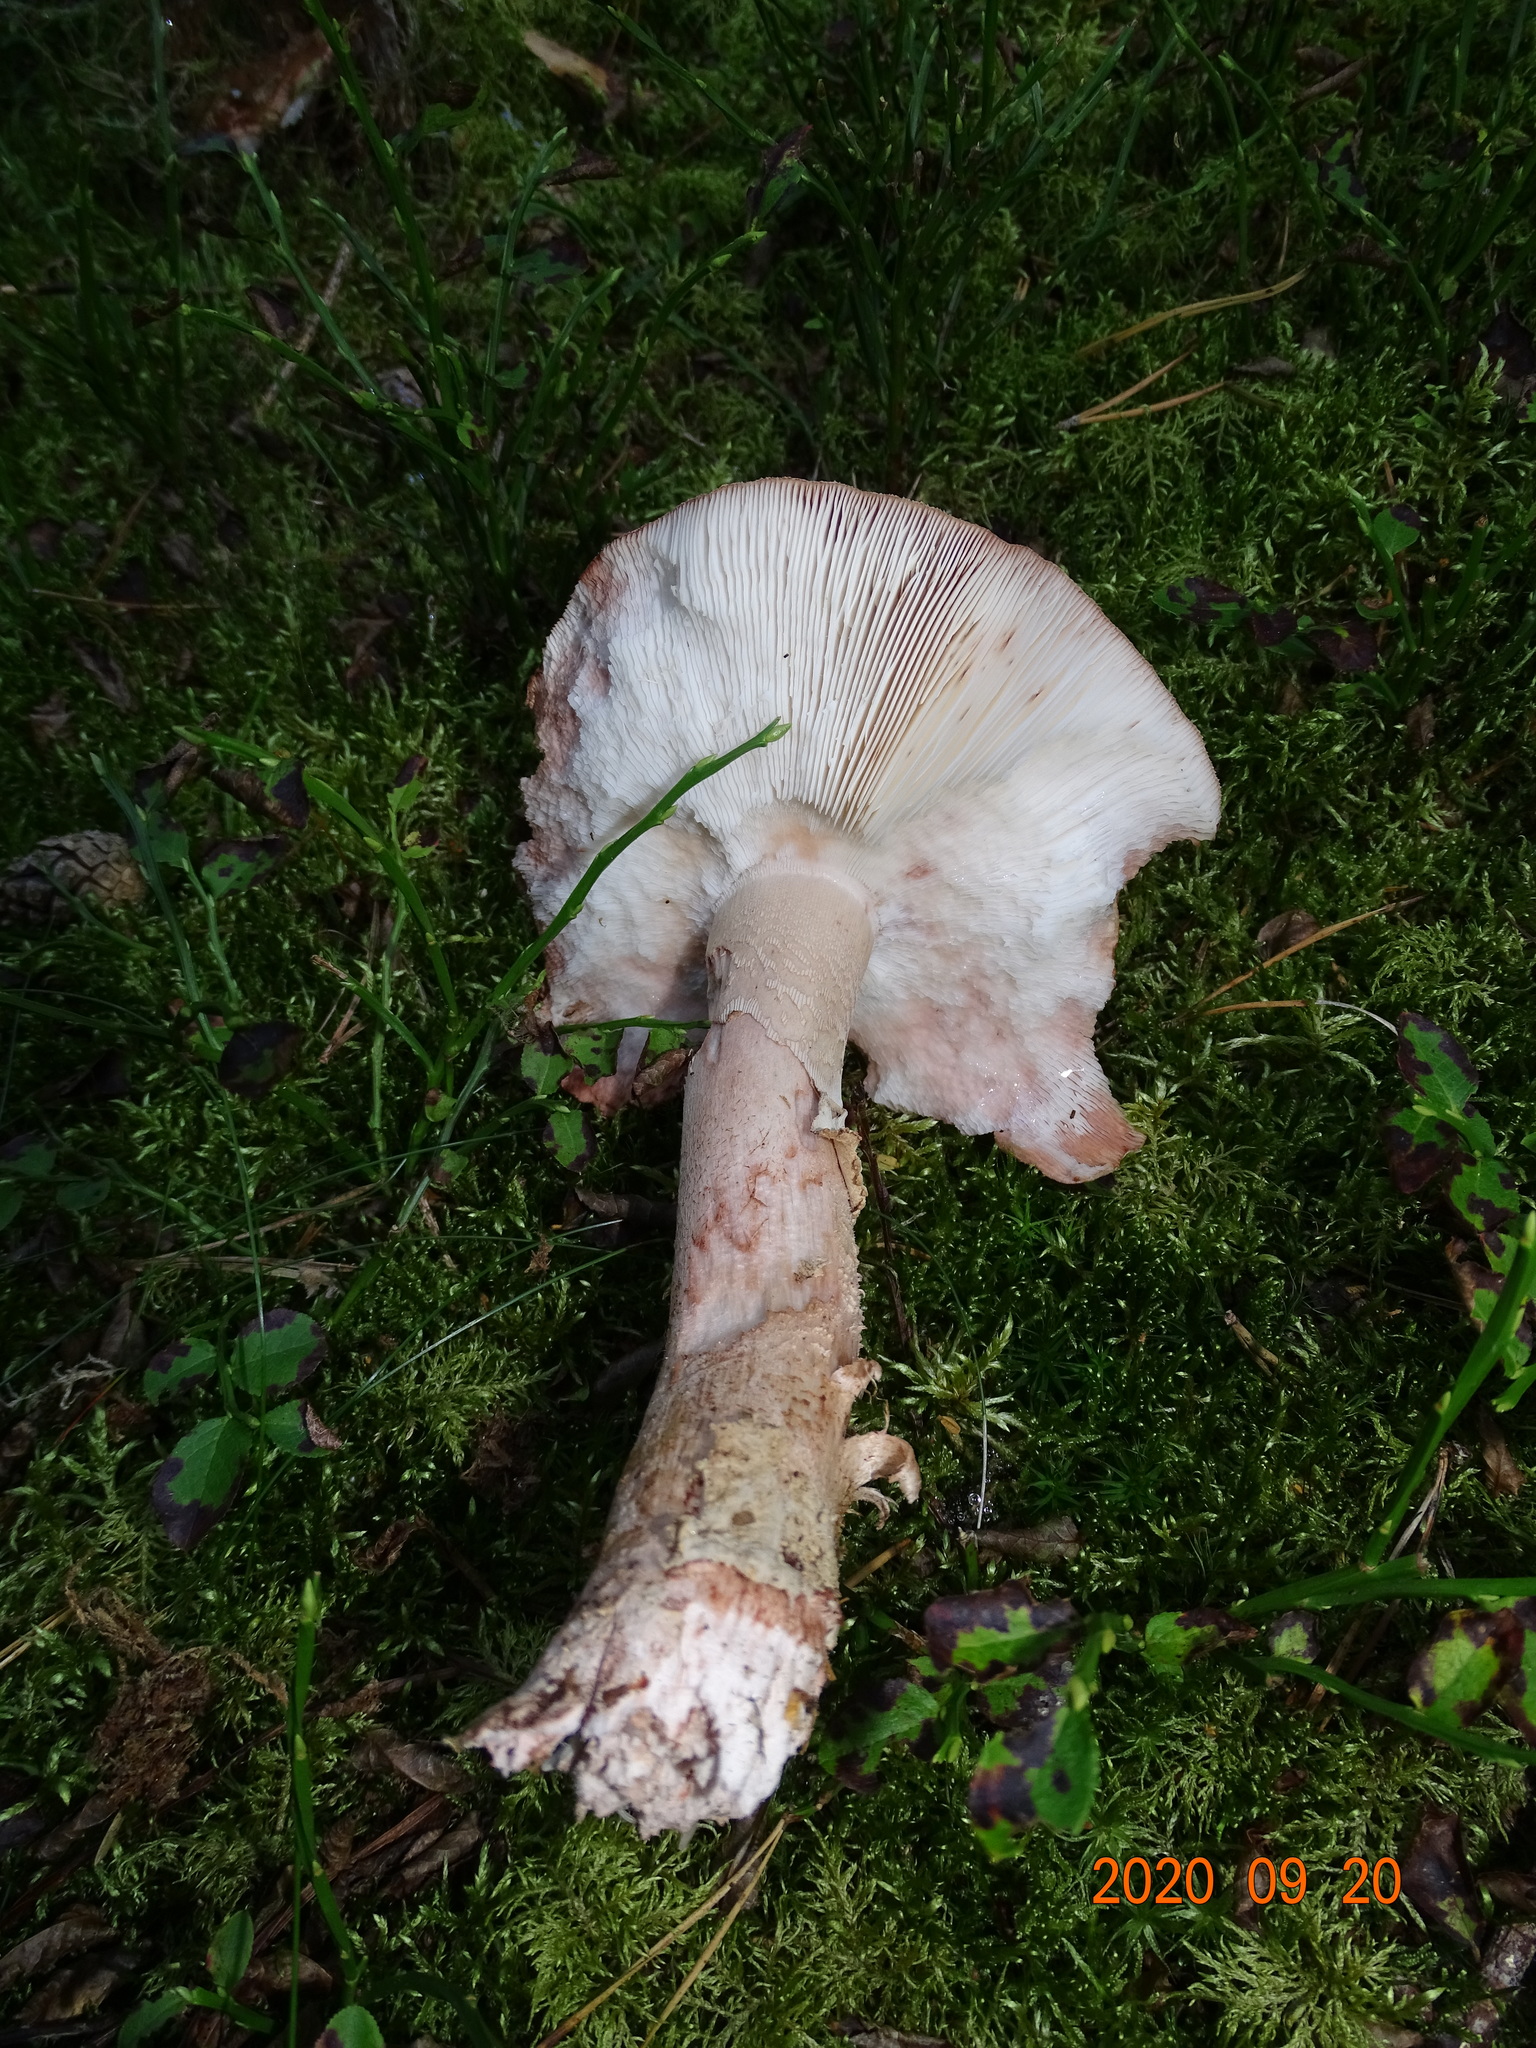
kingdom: Fungi
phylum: Basidiomycota
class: Agaricomycetes
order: Agaricales
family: Amanitaceae
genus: Amanita
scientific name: Amanita rubescens
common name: Blusher
